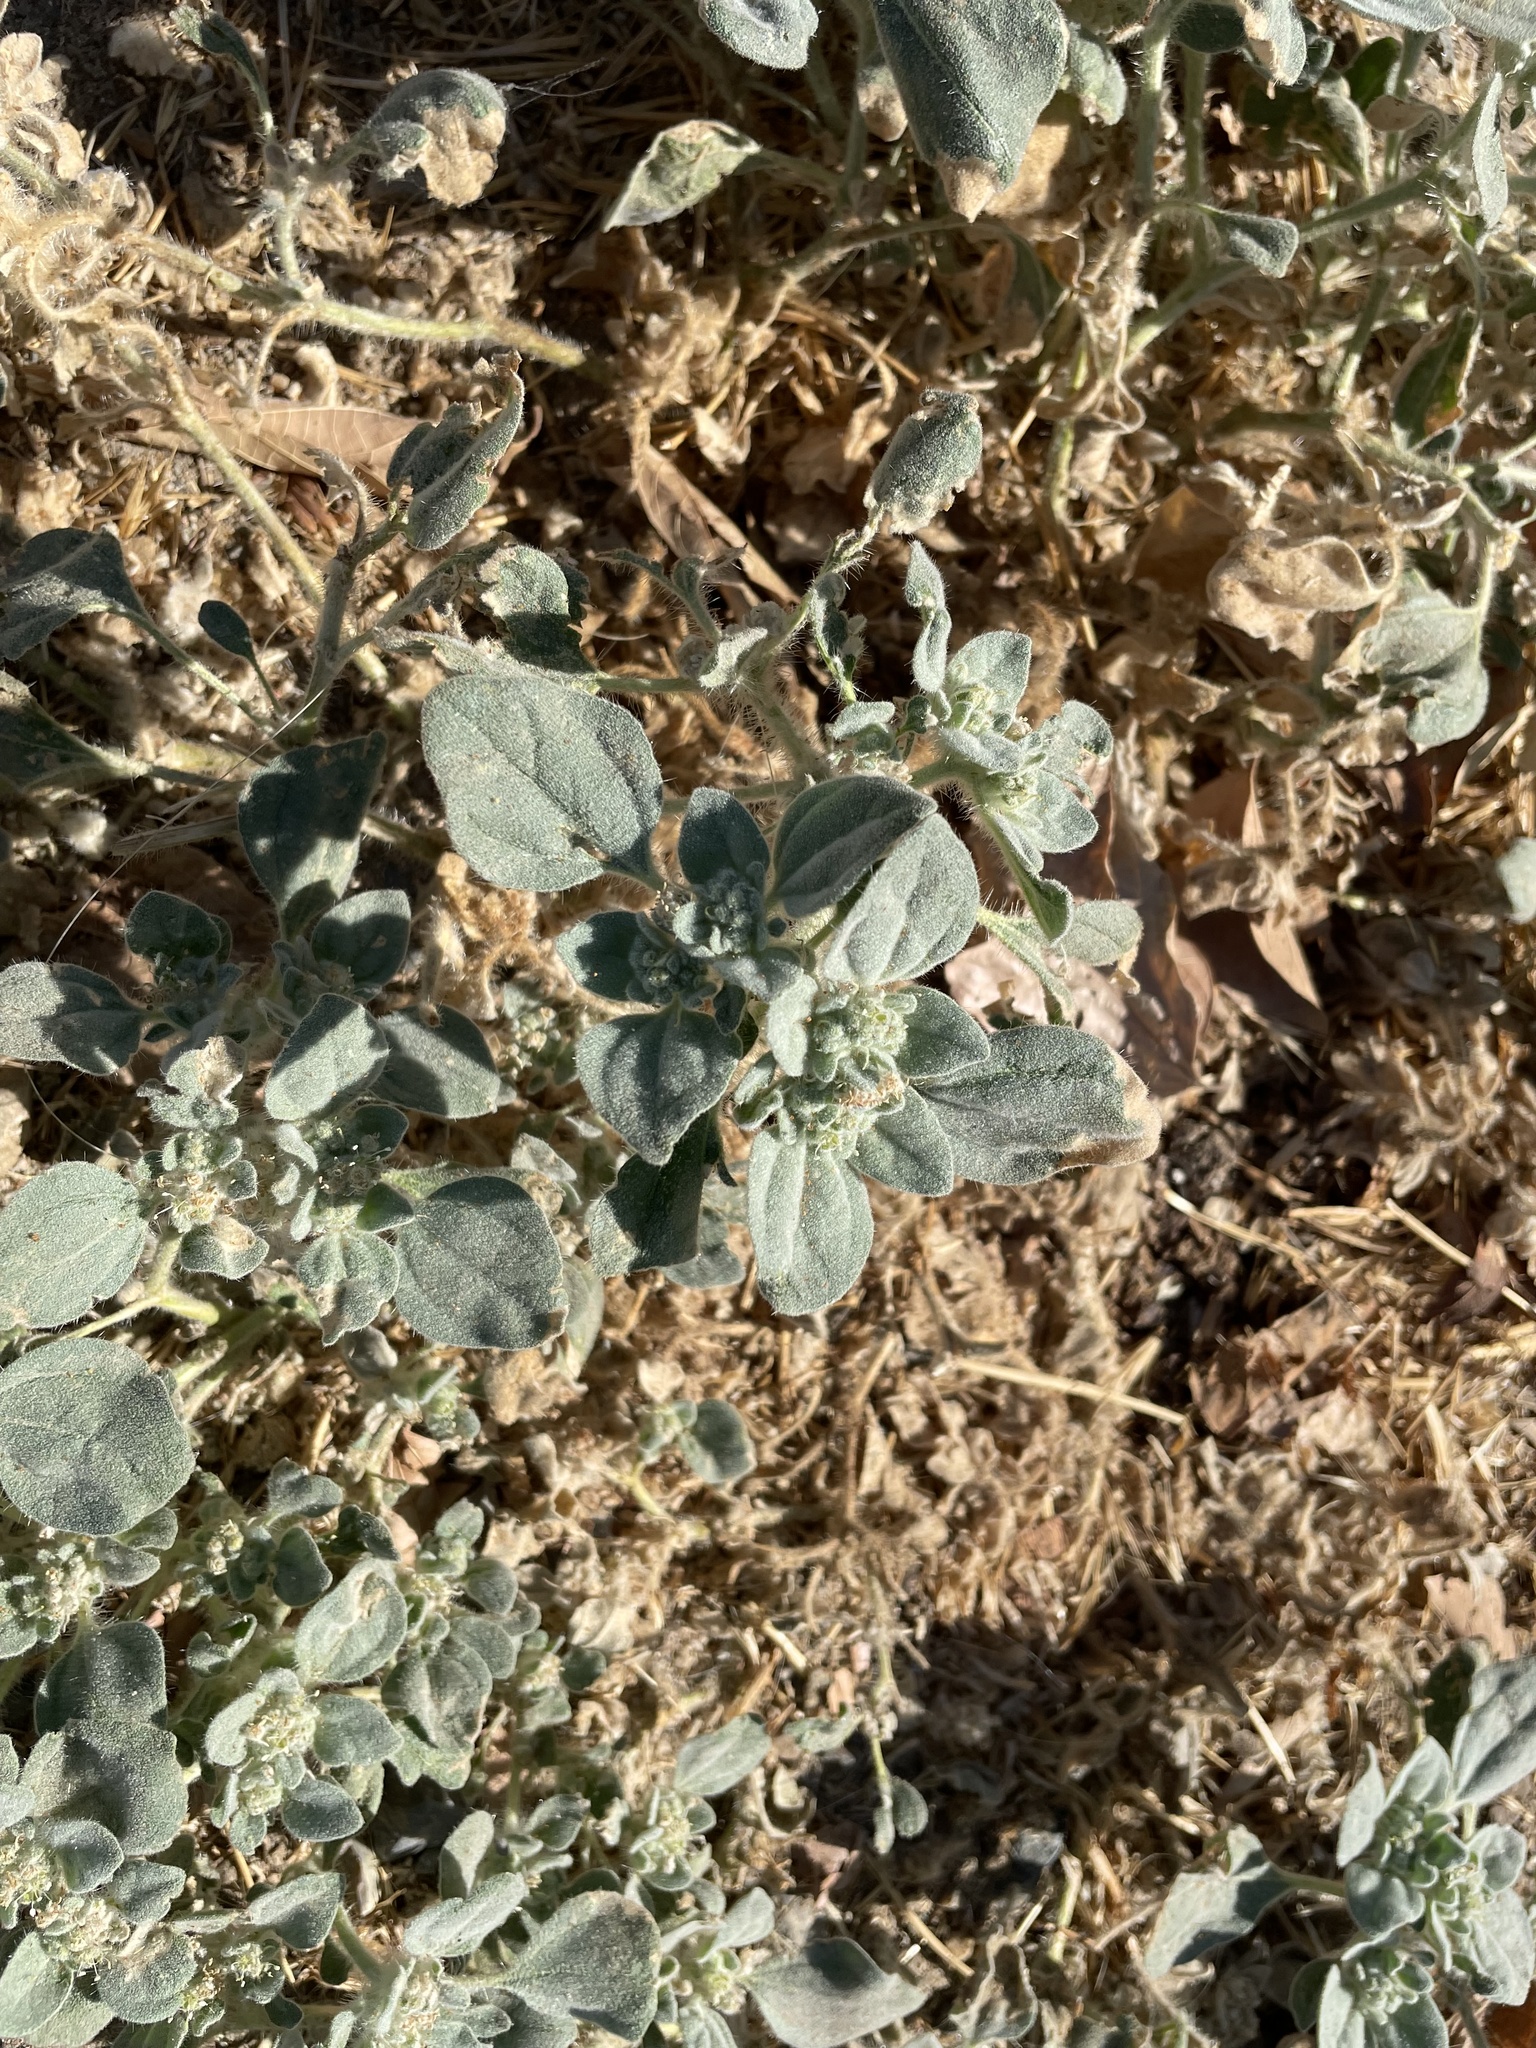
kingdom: Plantae
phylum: Tracheophyta
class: Magnoliopsida
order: Malpighiales
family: Euphorbiaceae
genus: Croton
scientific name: Croton setiger
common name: Dove weed
